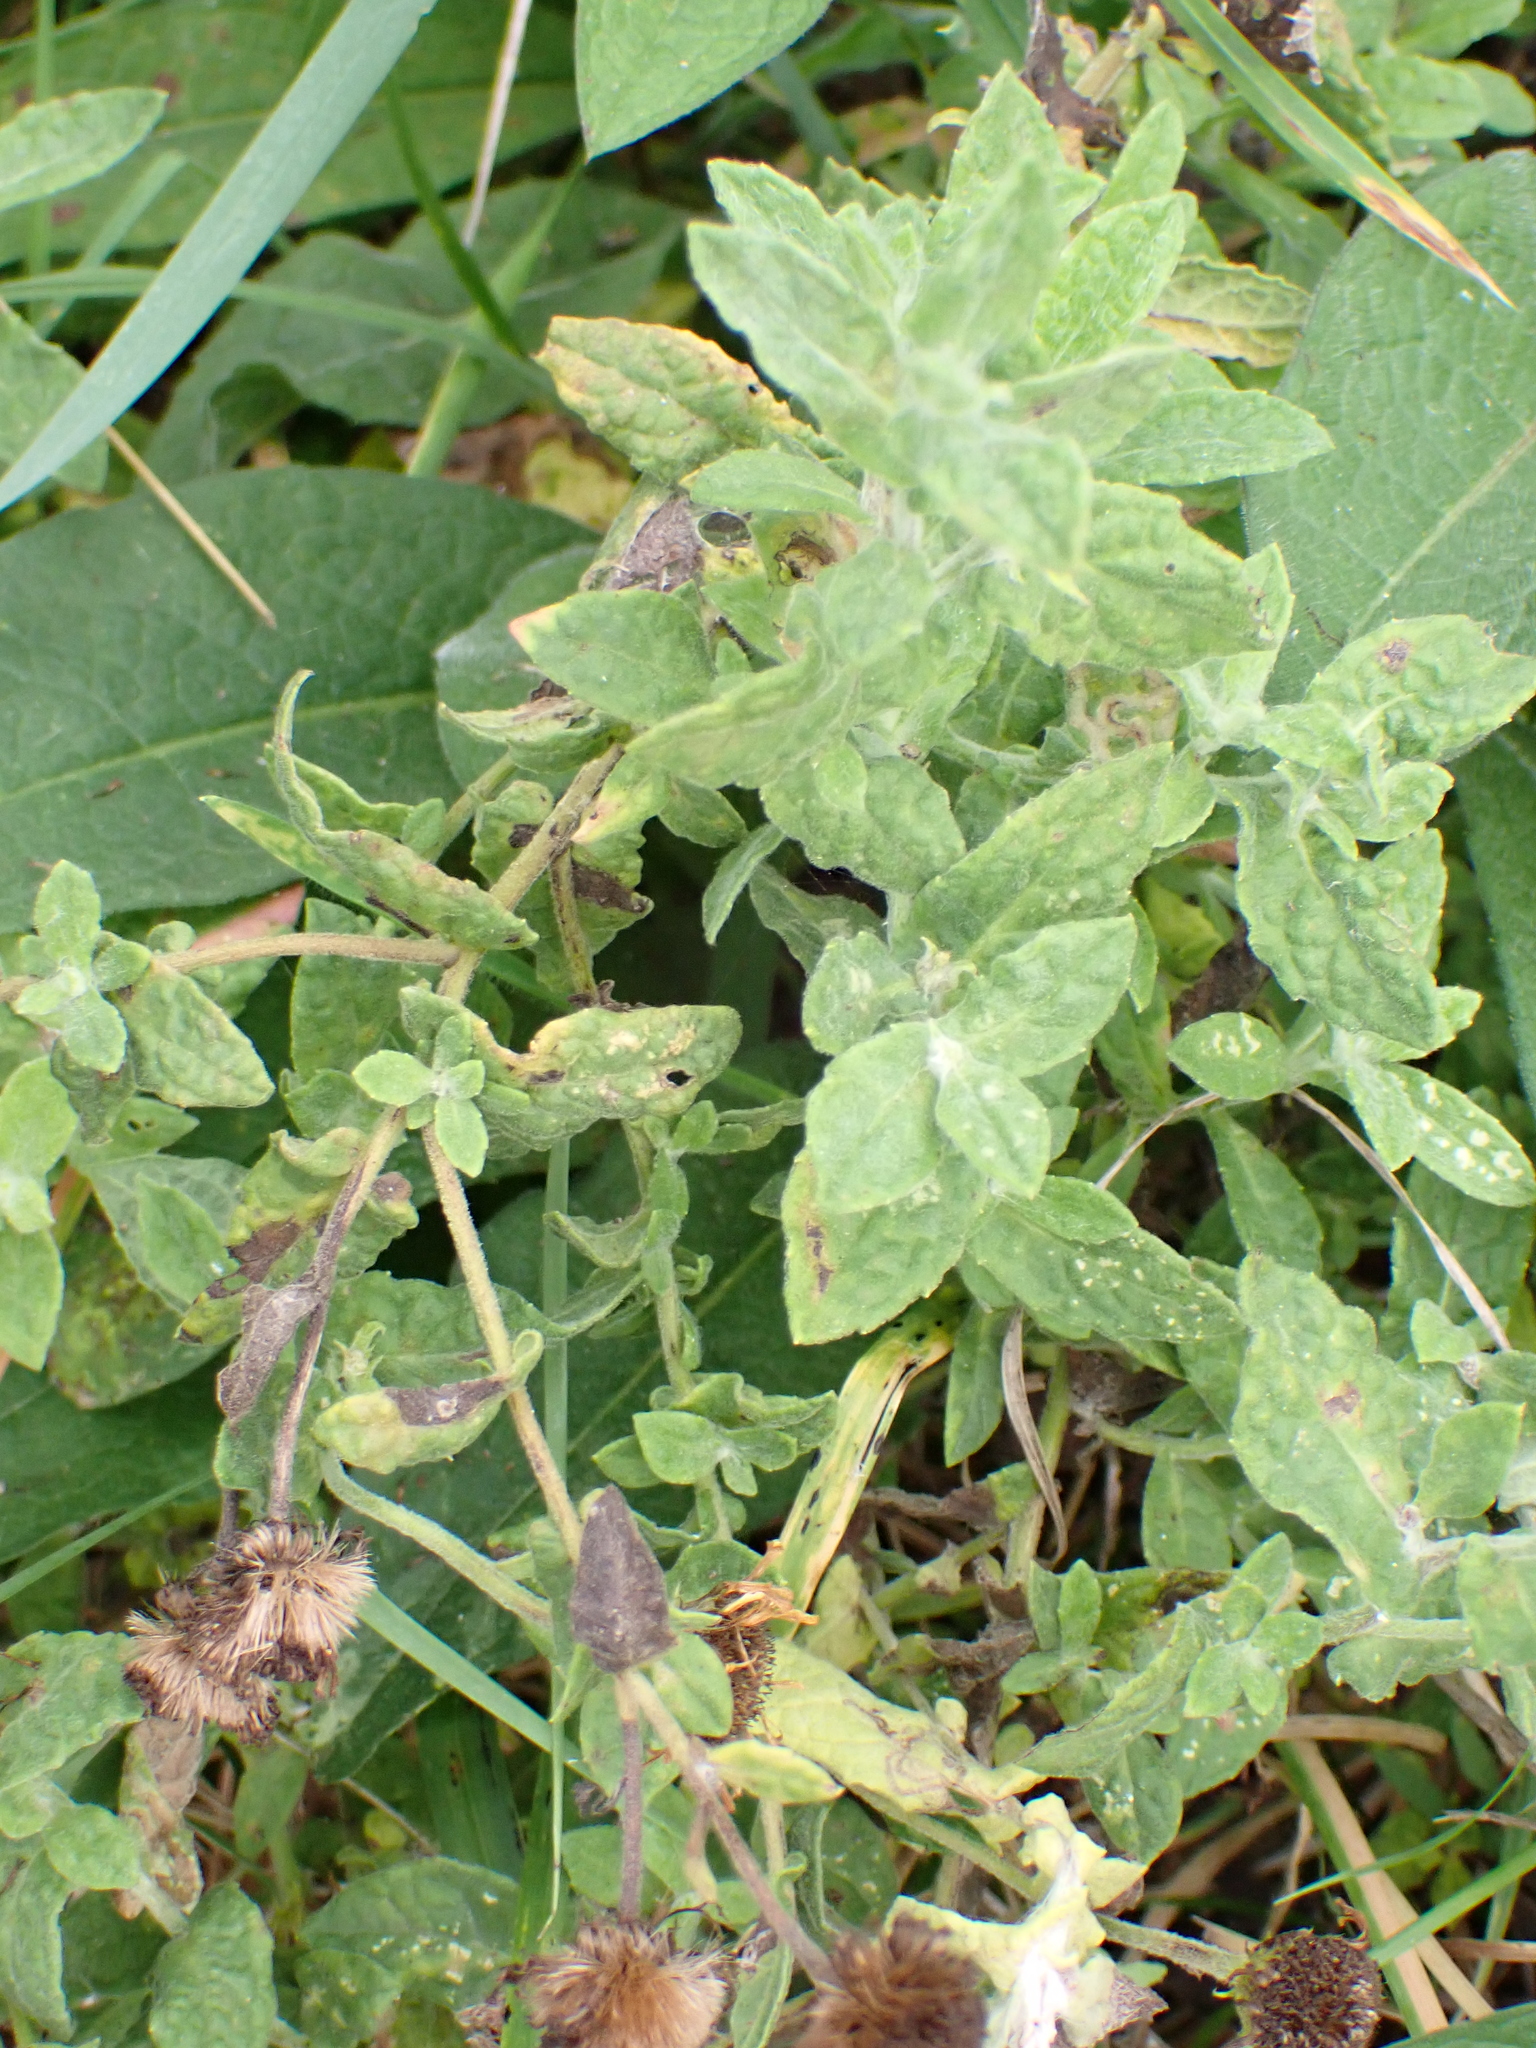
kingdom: Plantae
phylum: Tracheophyta
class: Magnoliopsida
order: Asterales
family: Asteraceae
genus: Pulicaria
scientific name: Pulicaria dysenterica
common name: Common fleabane
